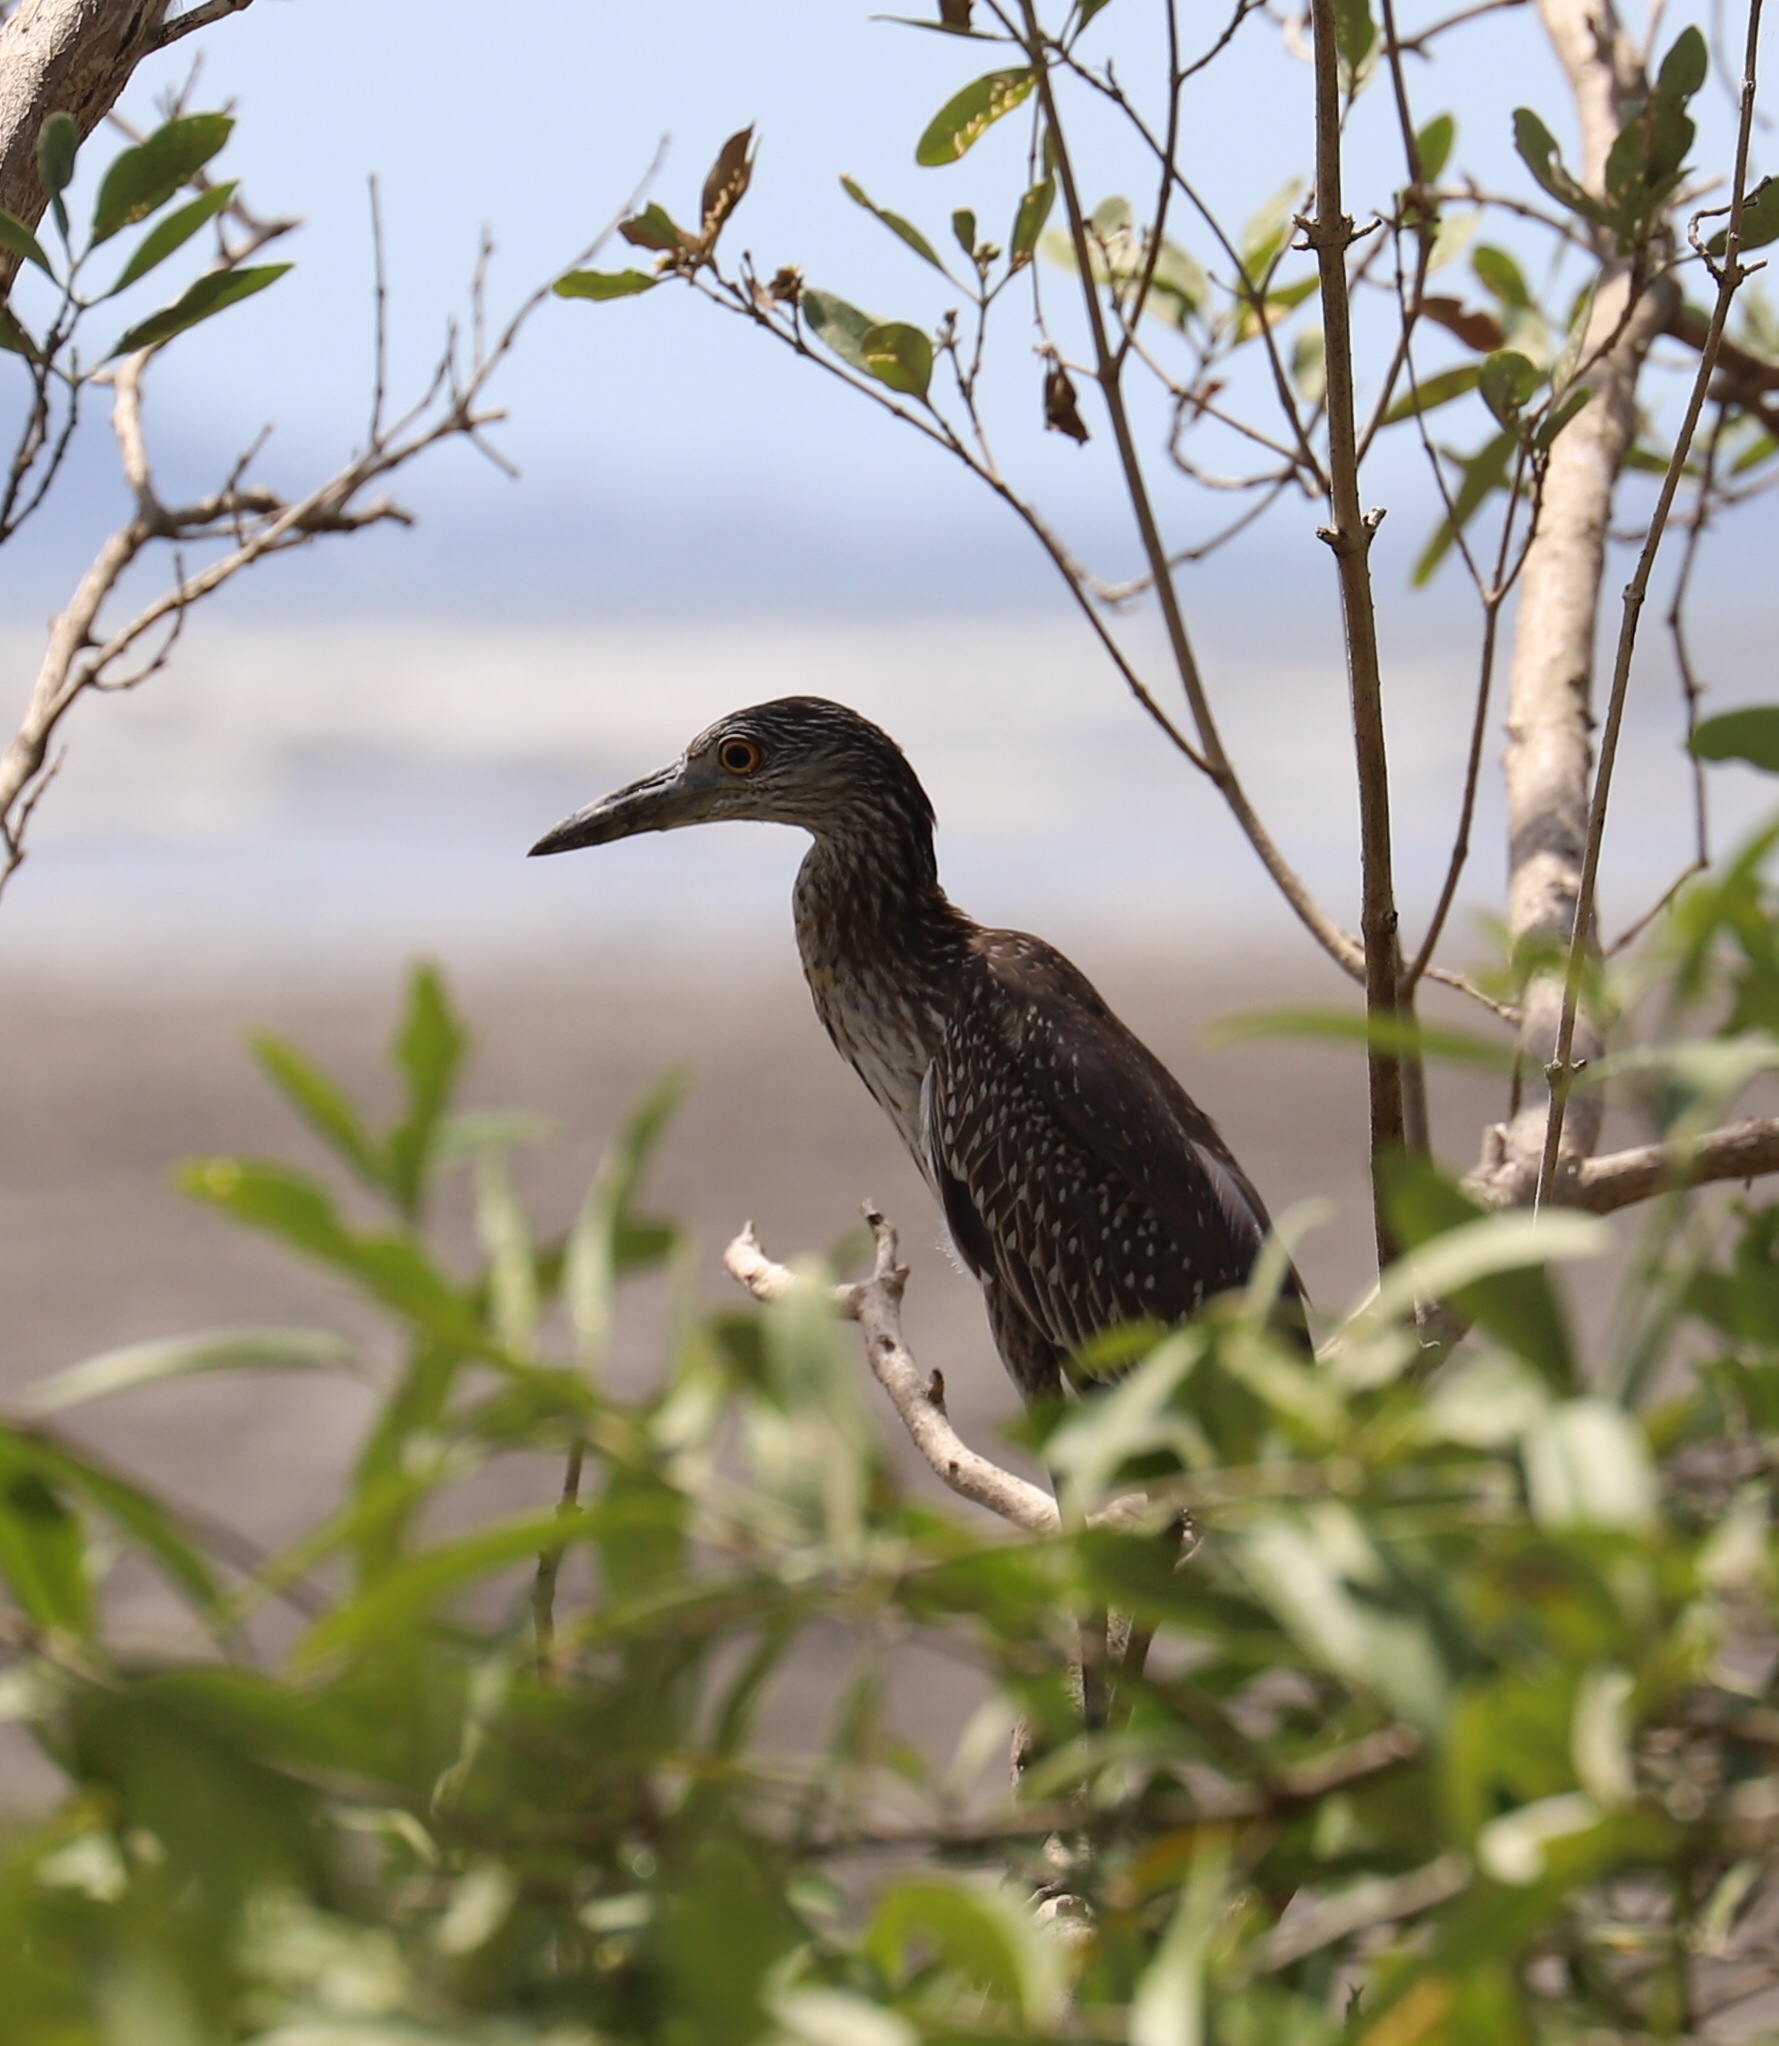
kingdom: Animalia
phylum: Chordata
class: Aves
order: Pelecaniformes
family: Ardeidae
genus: Nyctanassa
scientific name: Nyctanassa violacea
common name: Yellow-crowned night heron
